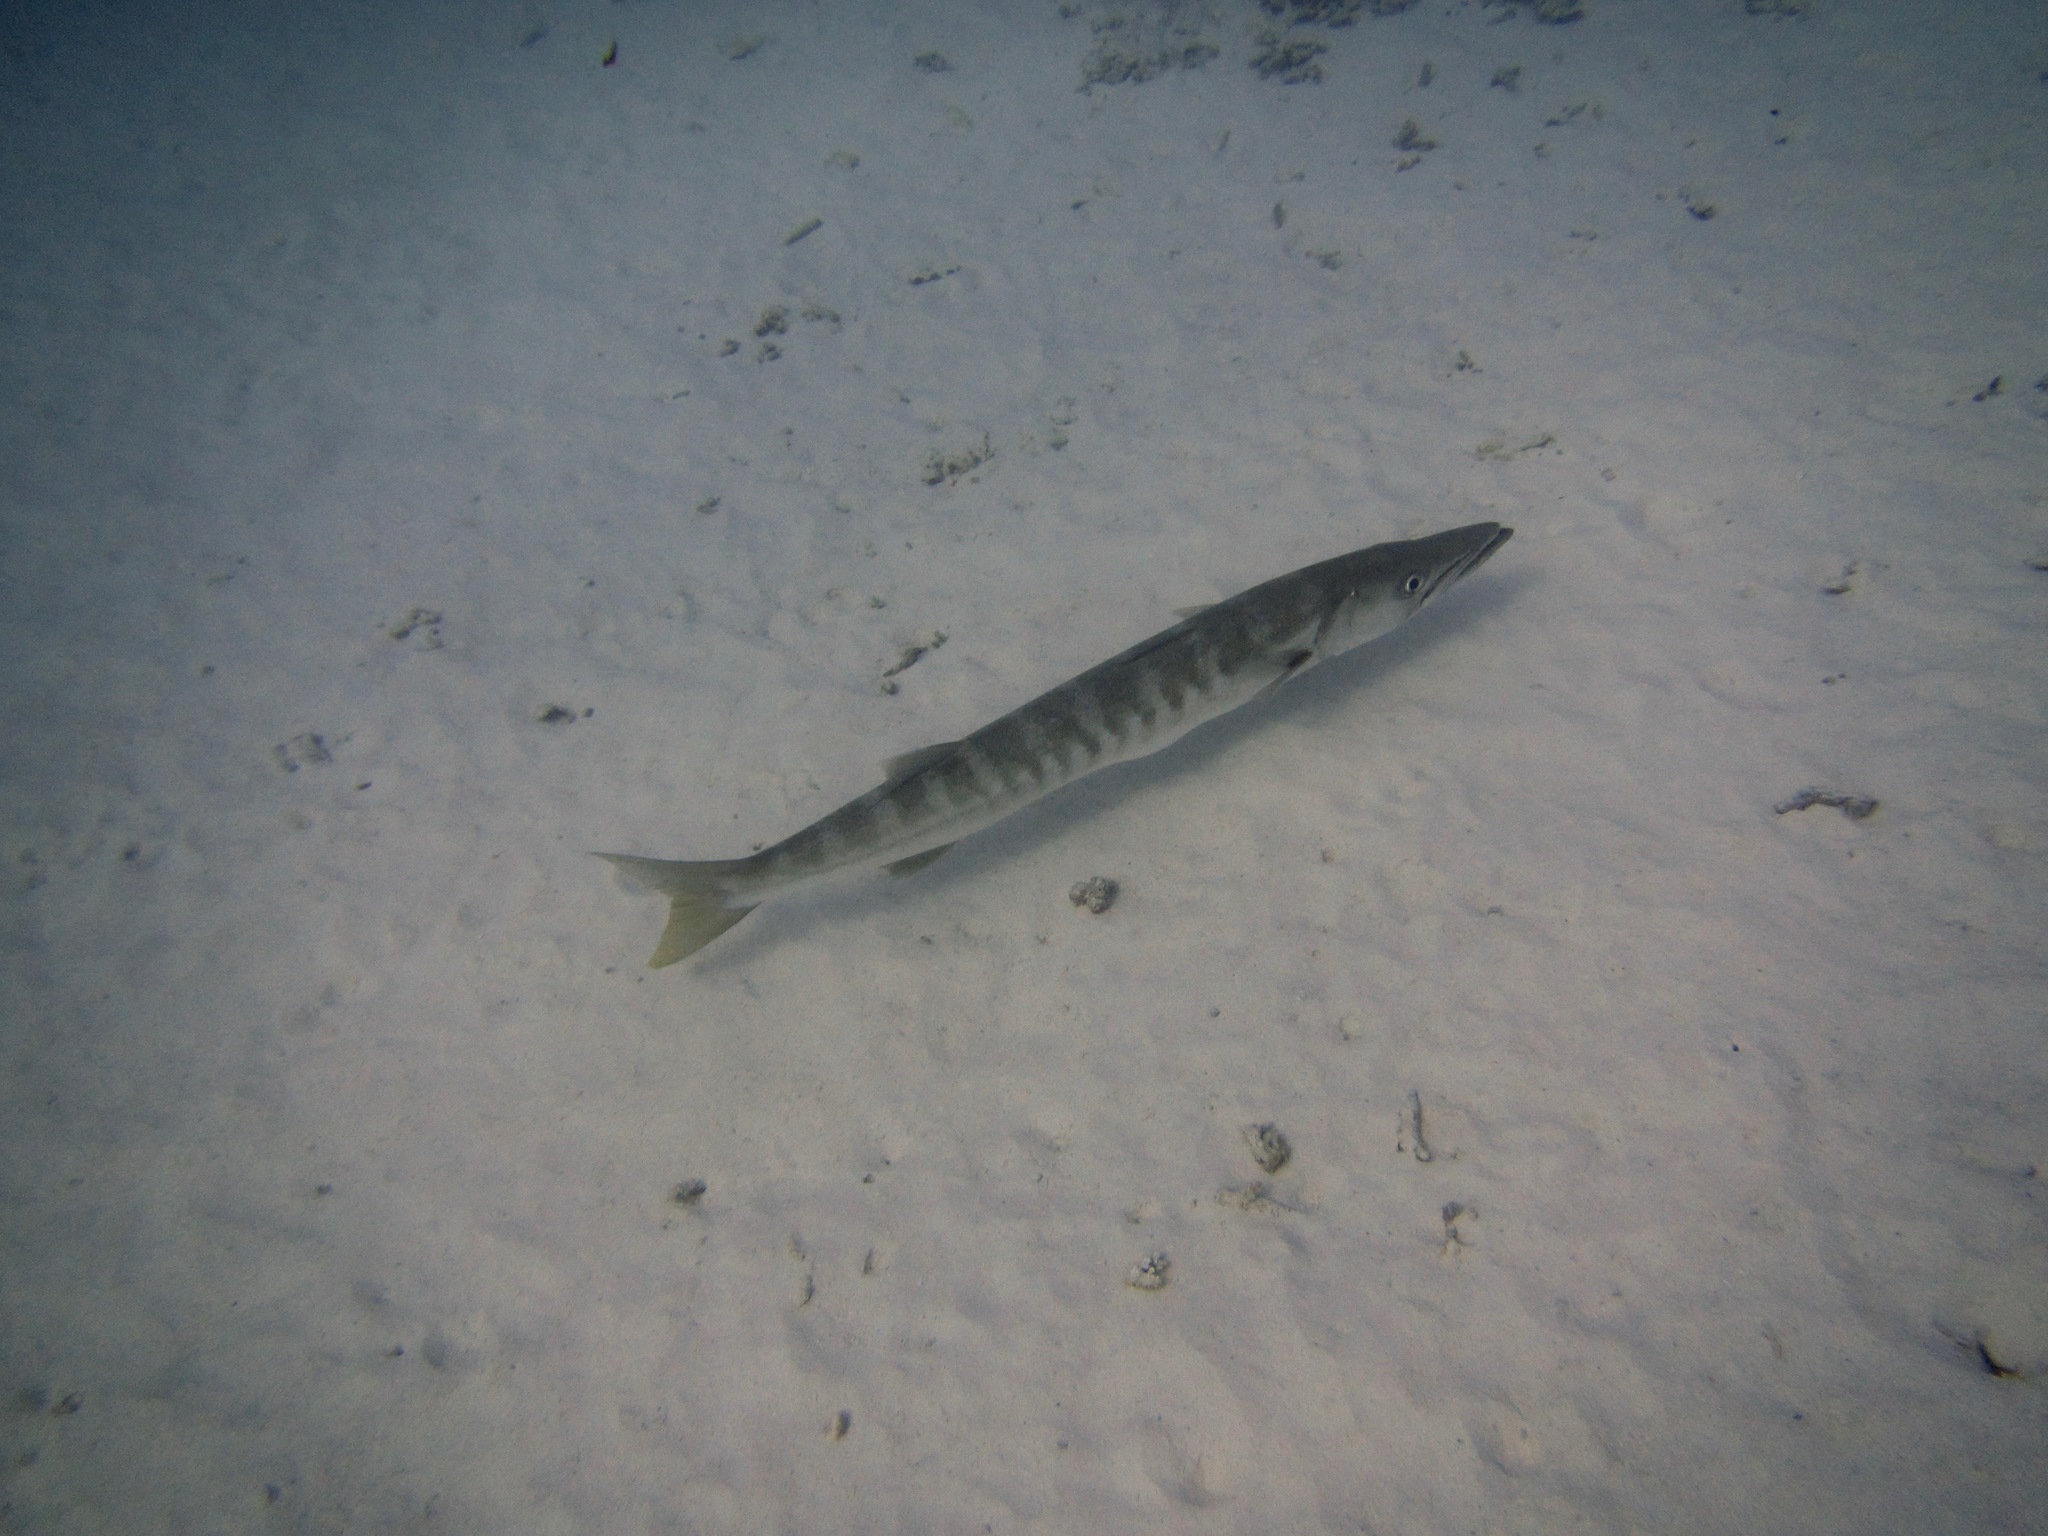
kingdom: Animalia
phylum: Chordata
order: Perciformes
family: Sphyraenidae
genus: Sphyraena
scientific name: Sphyraena jello
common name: Pickhandle barracuda
